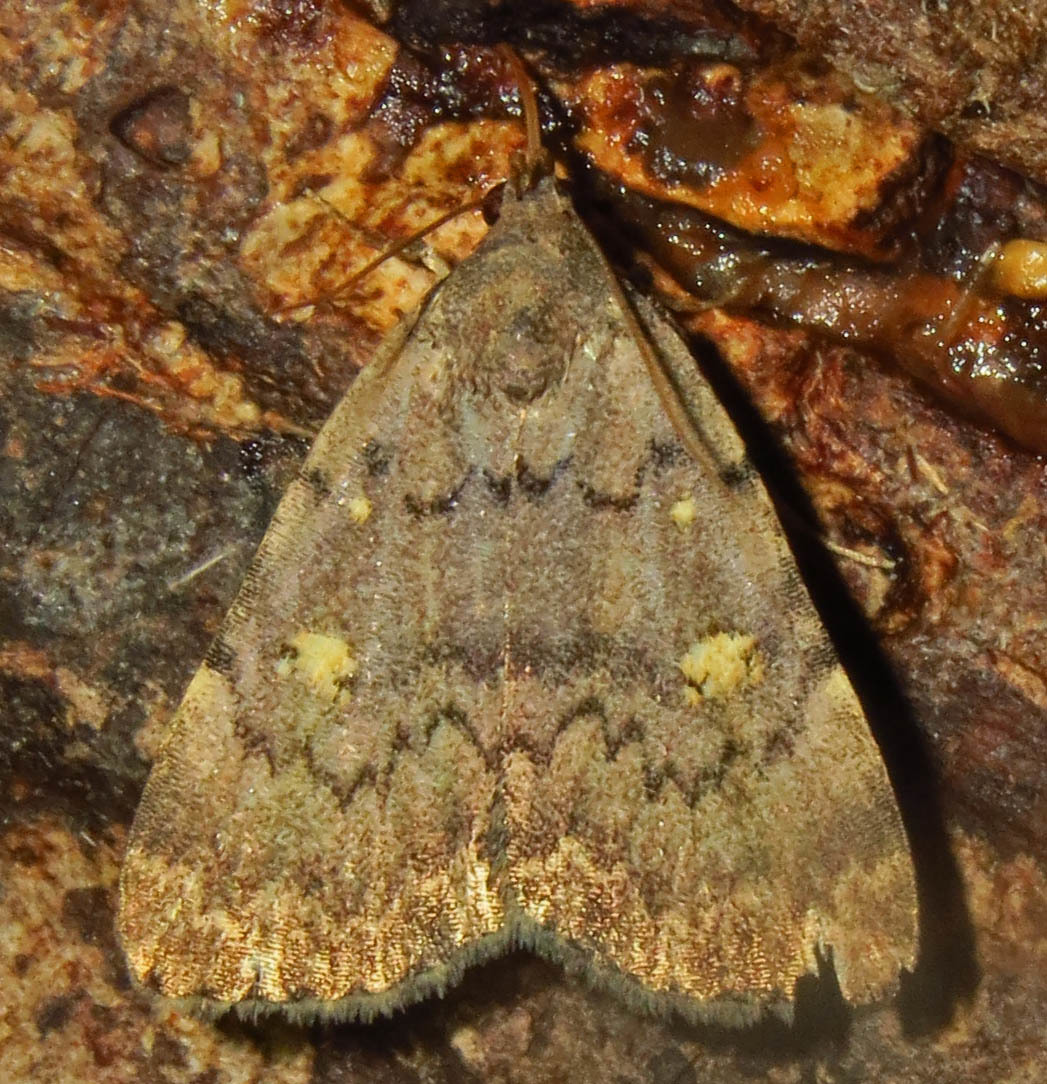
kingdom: Animalia
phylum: Arthropoda
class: Insecta
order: Lepidoptera
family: Erebidae
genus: Idia
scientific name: Idia aemula
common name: Common idia moth
